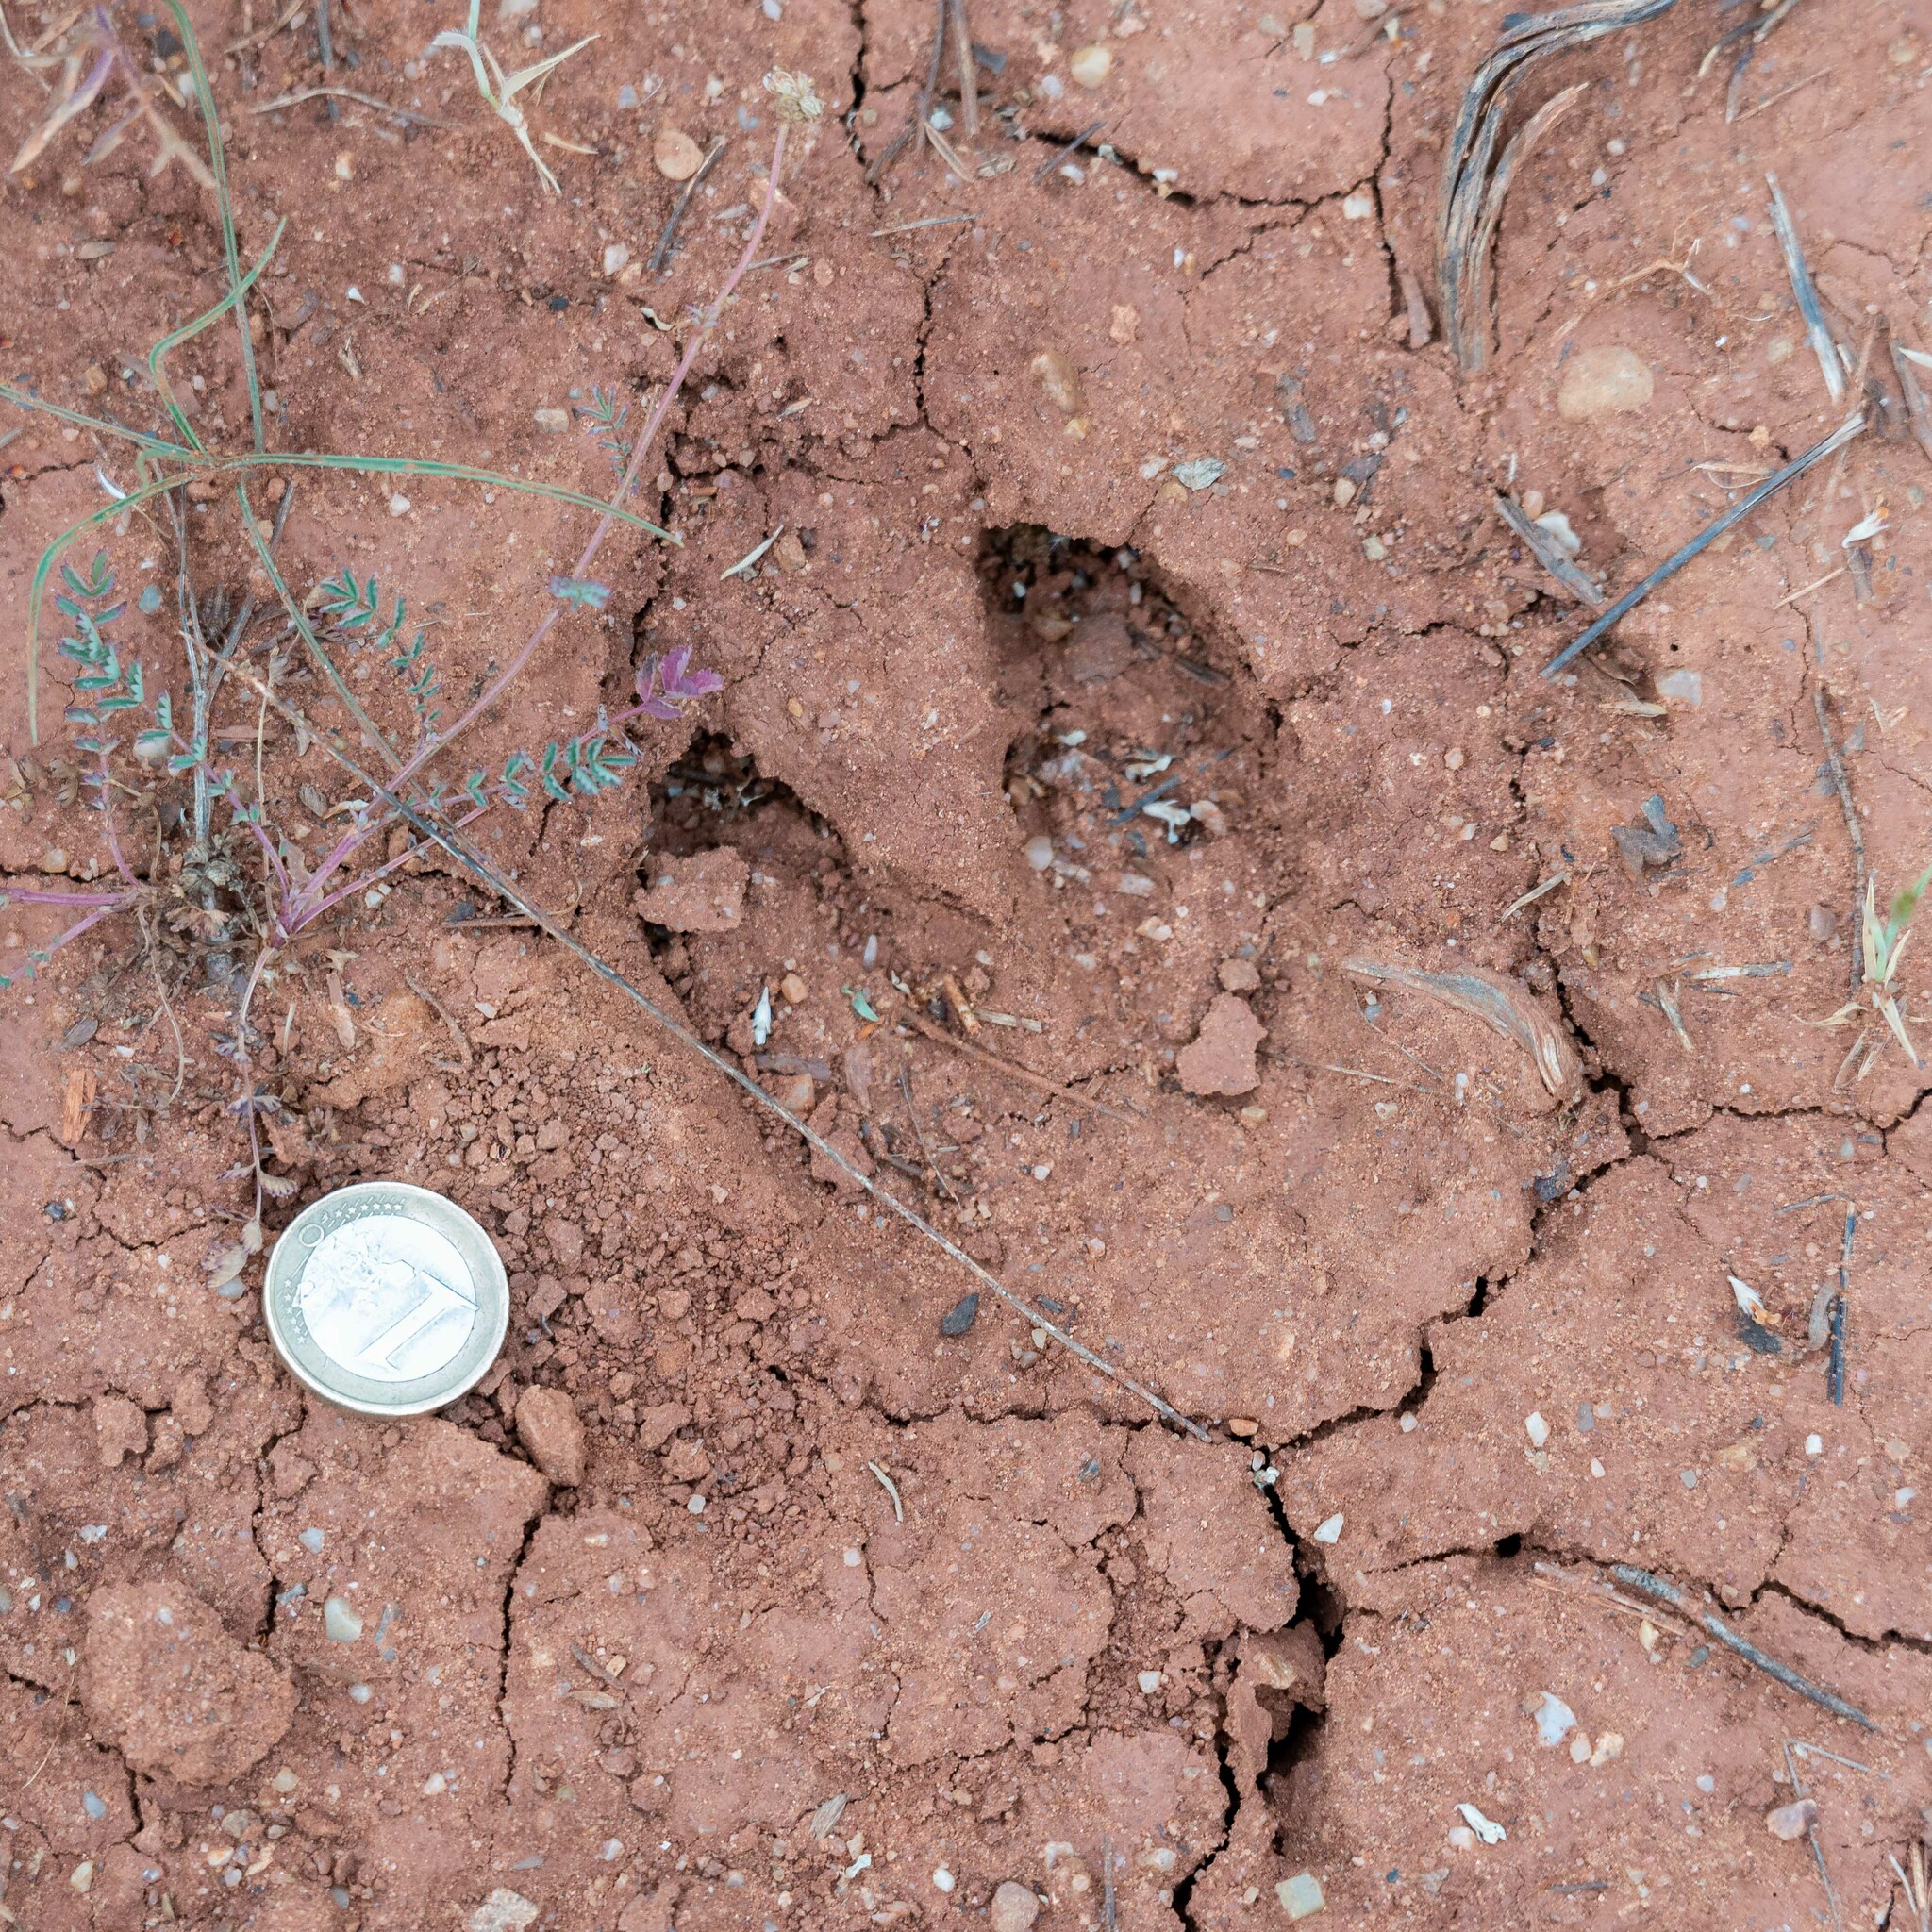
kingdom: Animalia
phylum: Chordata
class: Mammalia
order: Artiodactyla
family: Suidae
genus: Sus
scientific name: Sus scrofa
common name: Wild boar
